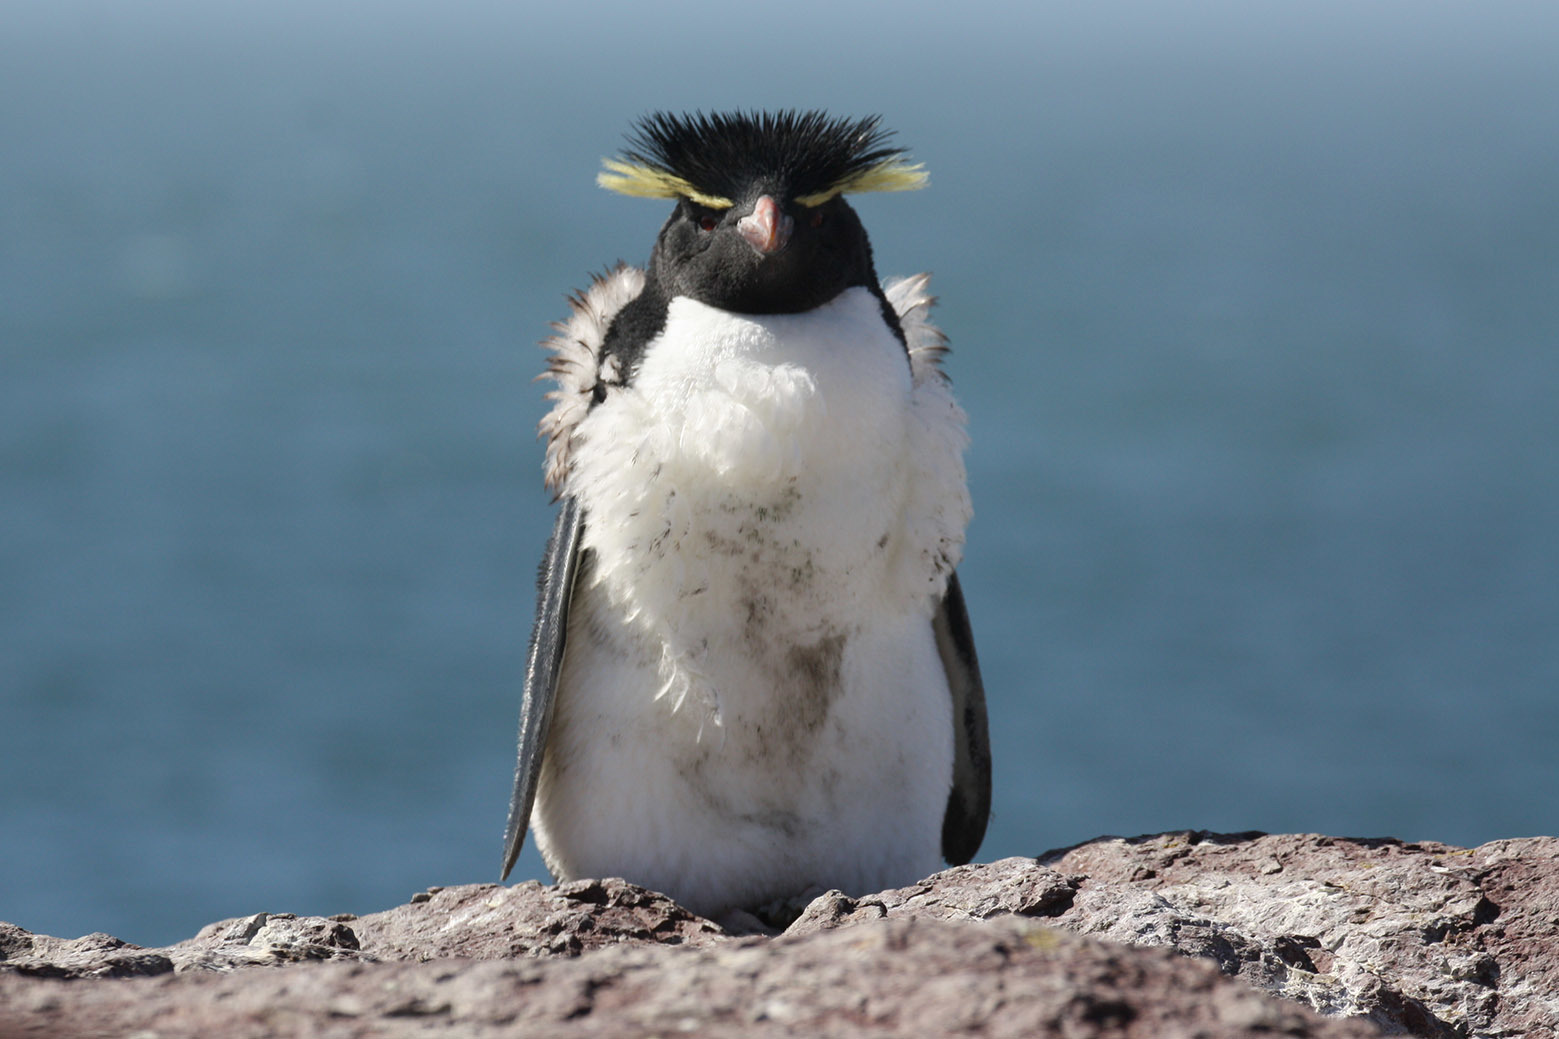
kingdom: Animalia
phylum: Chordata
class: Aves
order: Sphenisciformes
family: Spheniscidae
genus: Eudyptes
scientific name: Eudyptes chrysocome
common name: Southern rockhopper penguin
